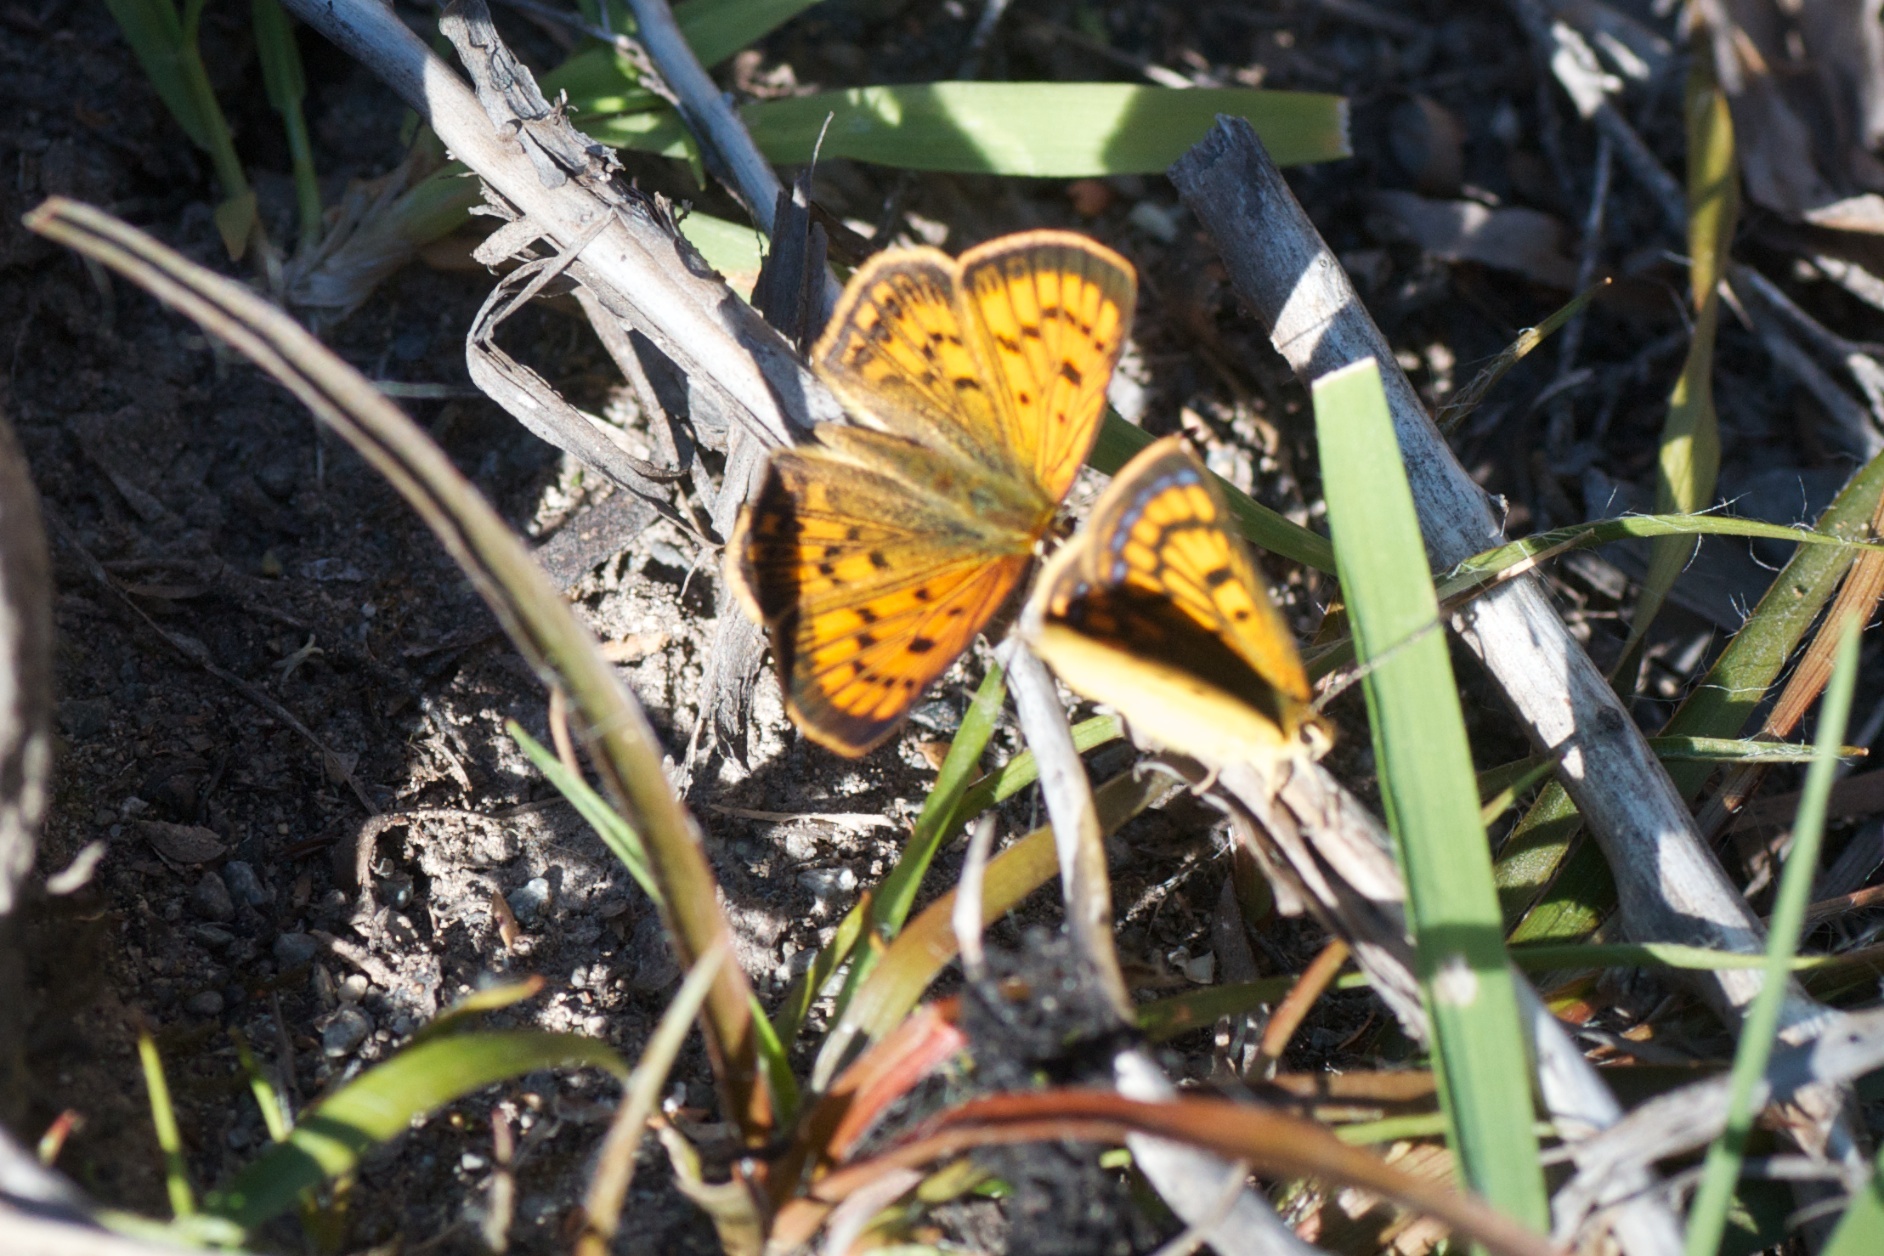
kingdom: Animalia
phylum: Arthropoda
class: Insecta
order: Lepidoptera
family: Lycaenidae
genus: Lycaena
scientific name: Lycaena salustius
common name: North island coastal copper
